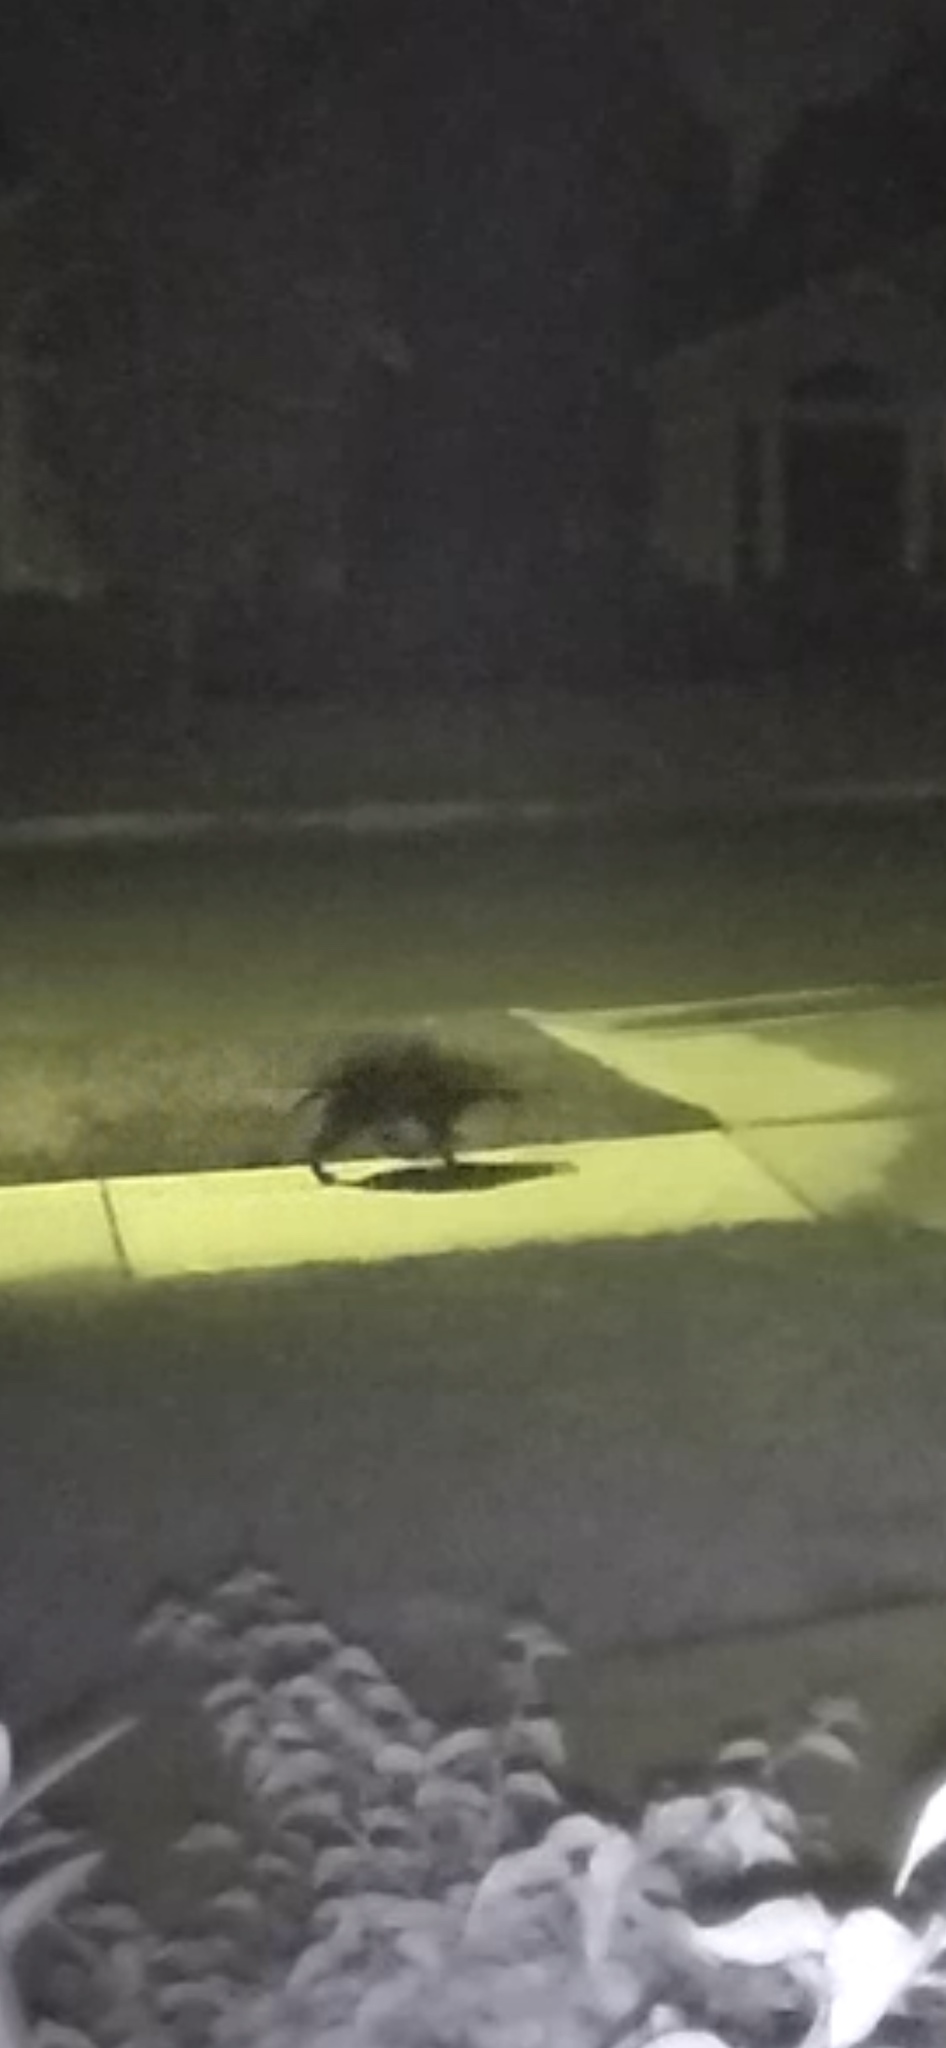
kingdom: Animalia
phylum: Chordata
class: Mammalia
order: Carnivora
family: Procyonidae
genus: Procyon
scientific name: Procyon lotor
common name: Raccoon
